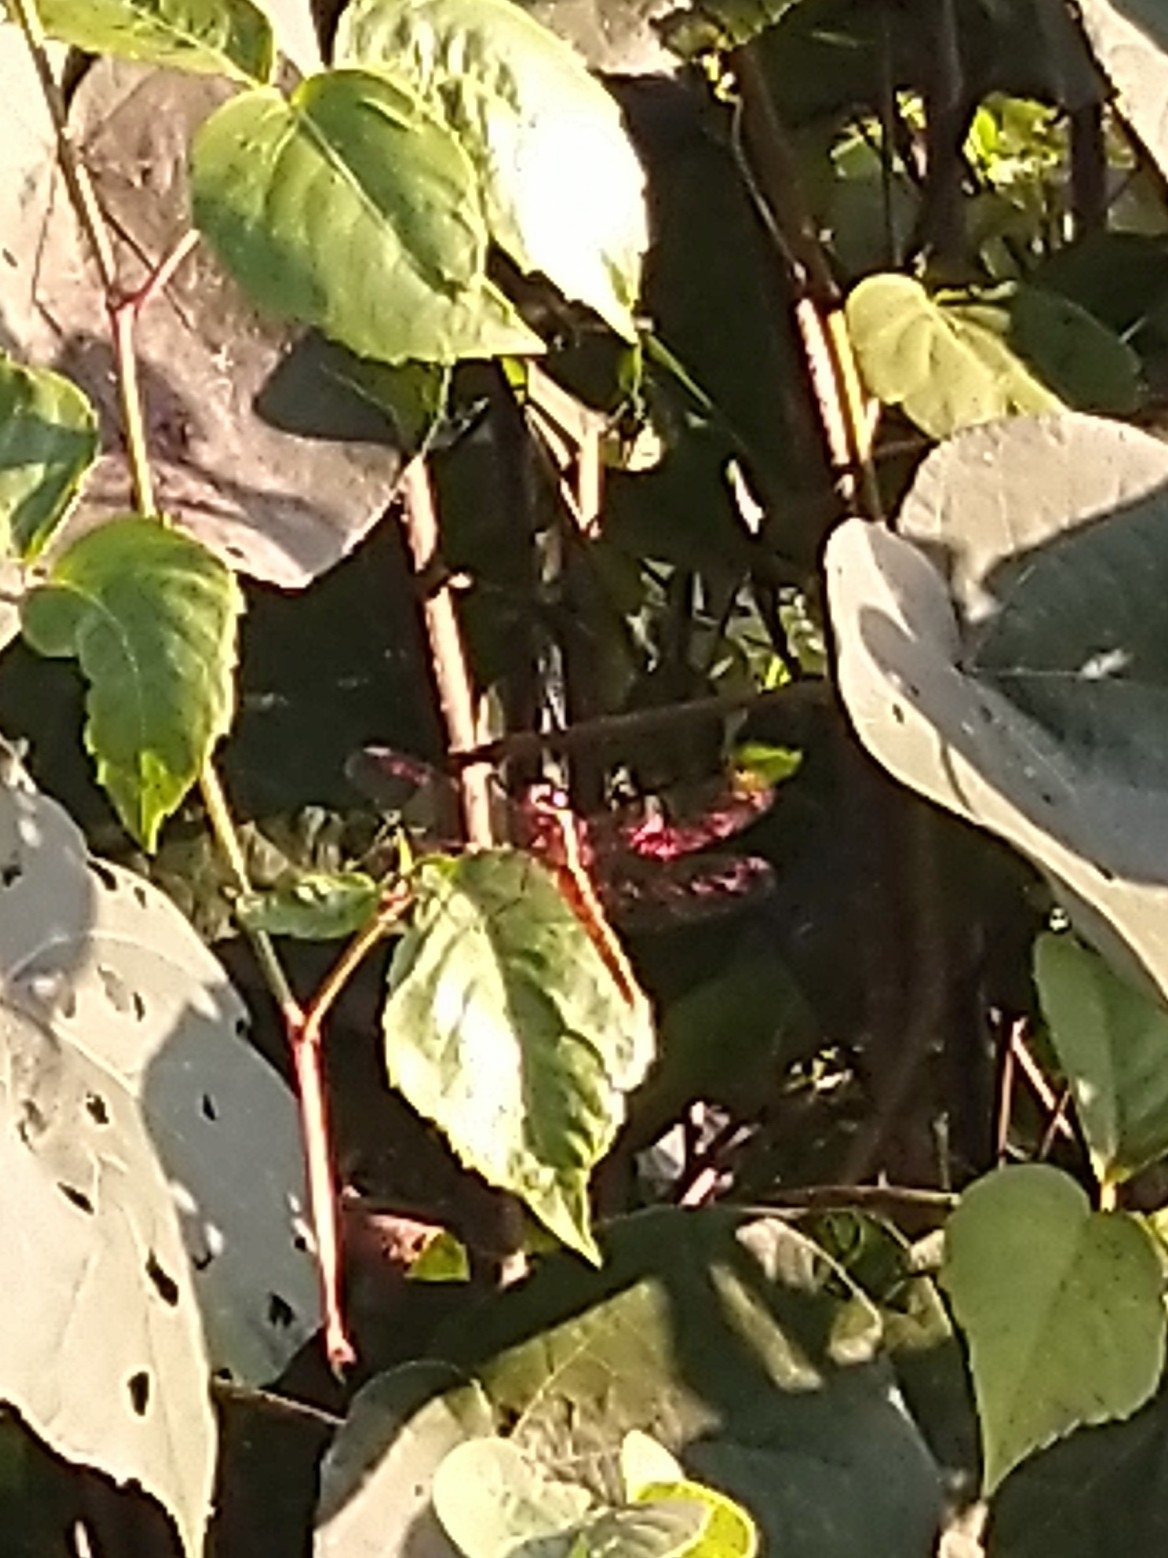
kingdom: Animalia
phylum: Arthropoda
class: Insecta
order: Odonata
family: Libellulidae
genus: Rhodothemis
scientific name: Rhodothemis rufa
